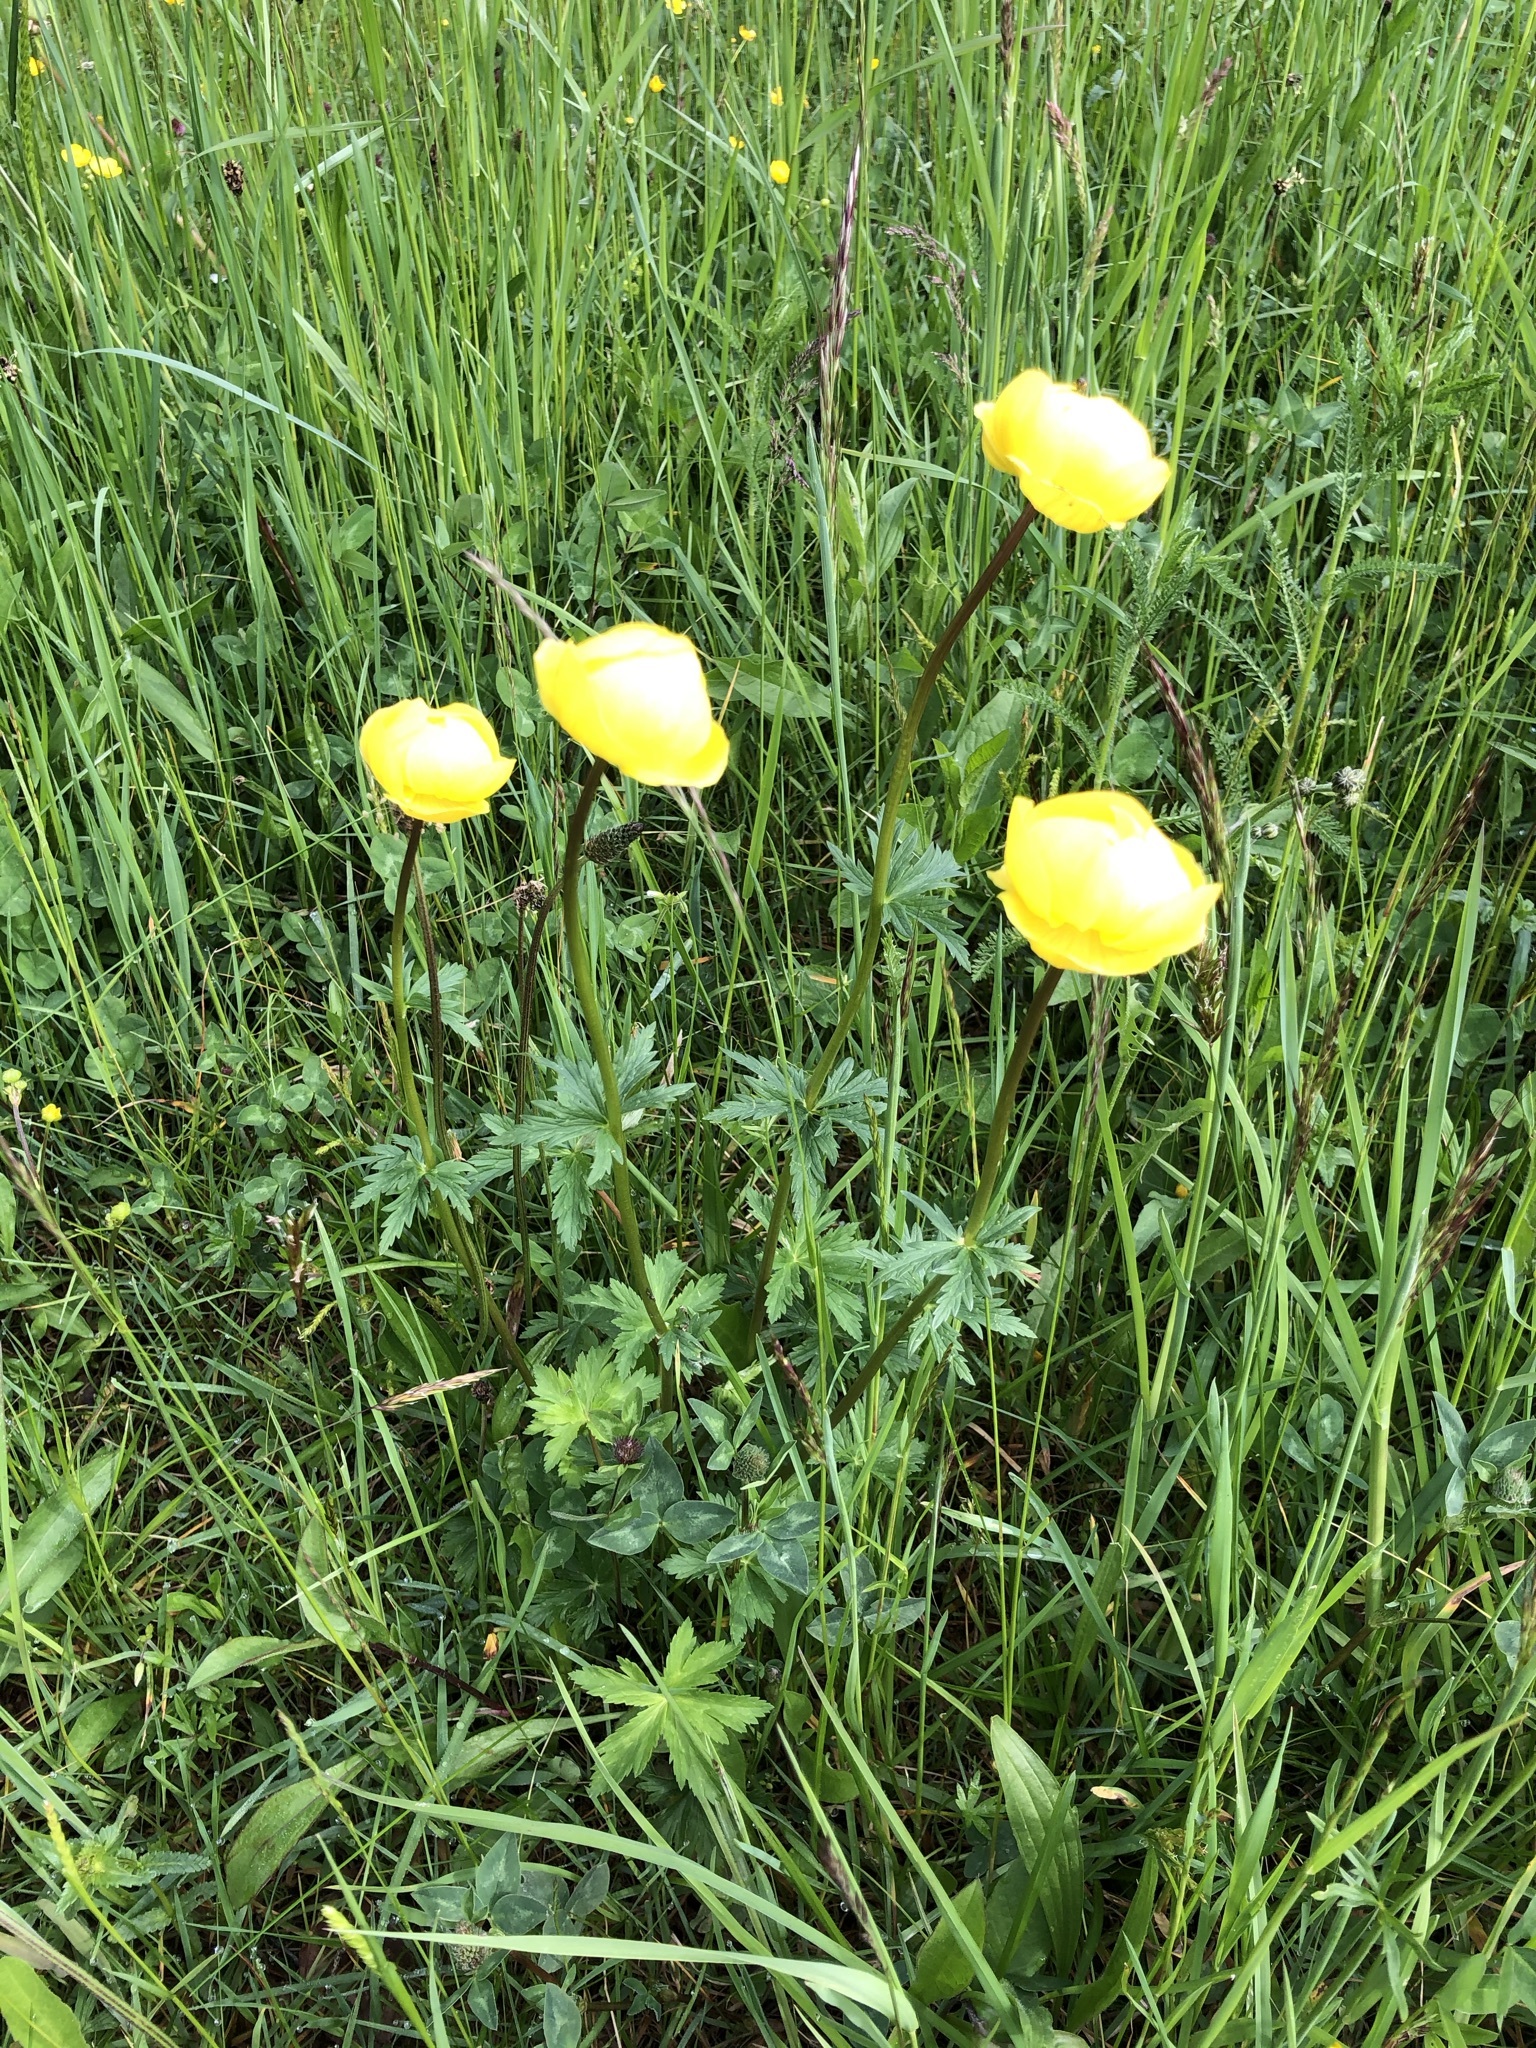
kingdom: Plantae
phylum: Tracheophyta
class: Magnoliopsida
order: Ranunculales
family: Ranunculaceae
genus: Trollius
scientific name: Trollius europaeus
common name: European globeflower
